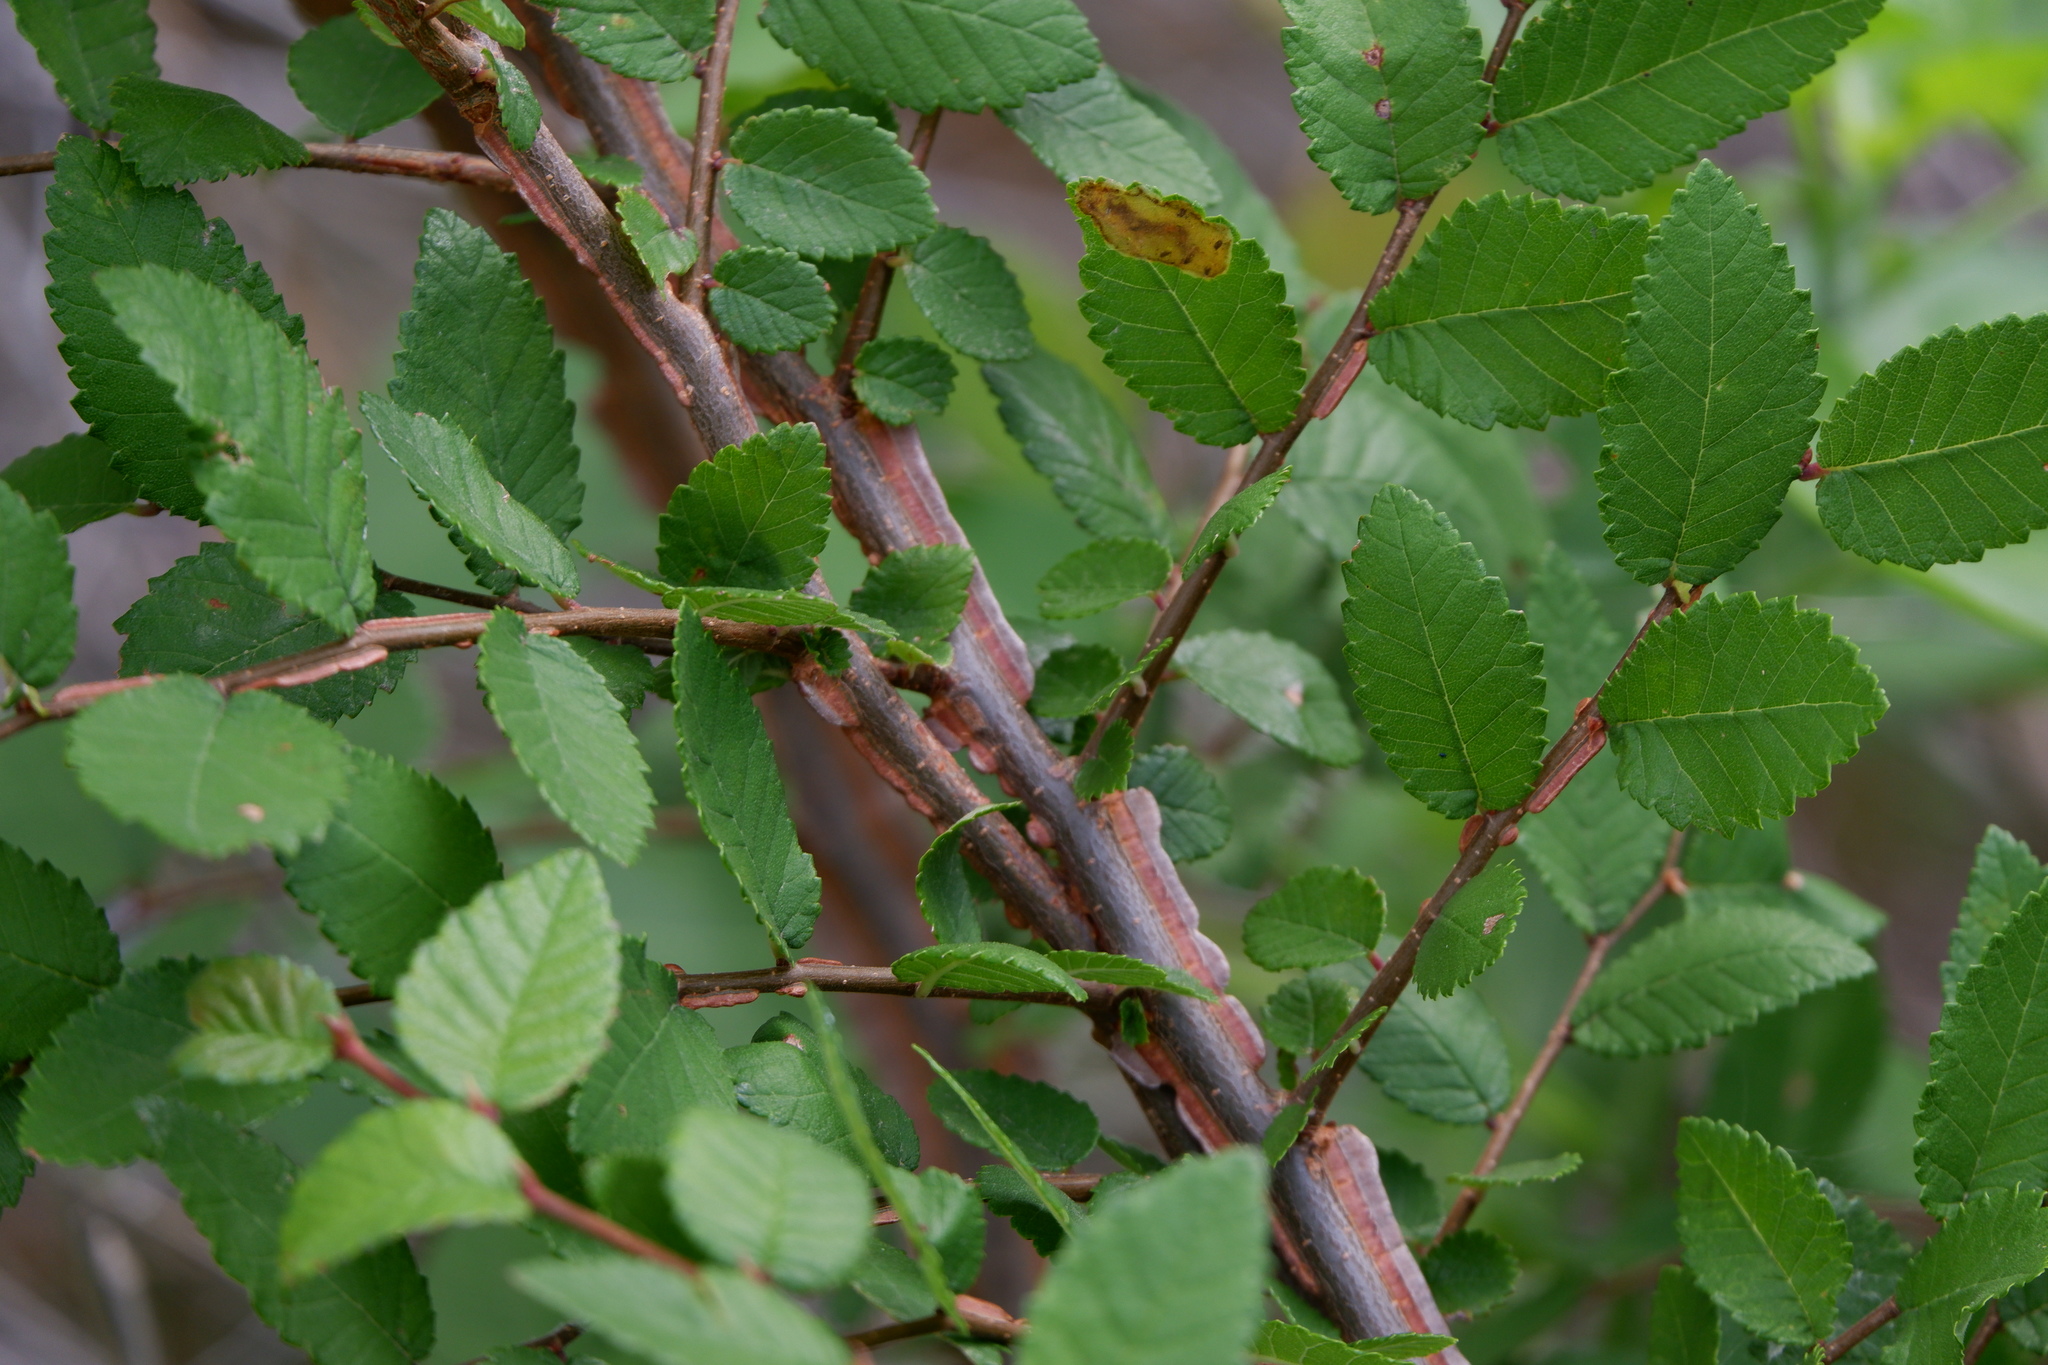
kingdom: Plantae
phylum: Tracheophyta
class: Magnoliopsida
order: Rosales
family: Ulmaceae
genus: Ulmus
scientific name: Ulmus crassifolia
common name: Basket elm
